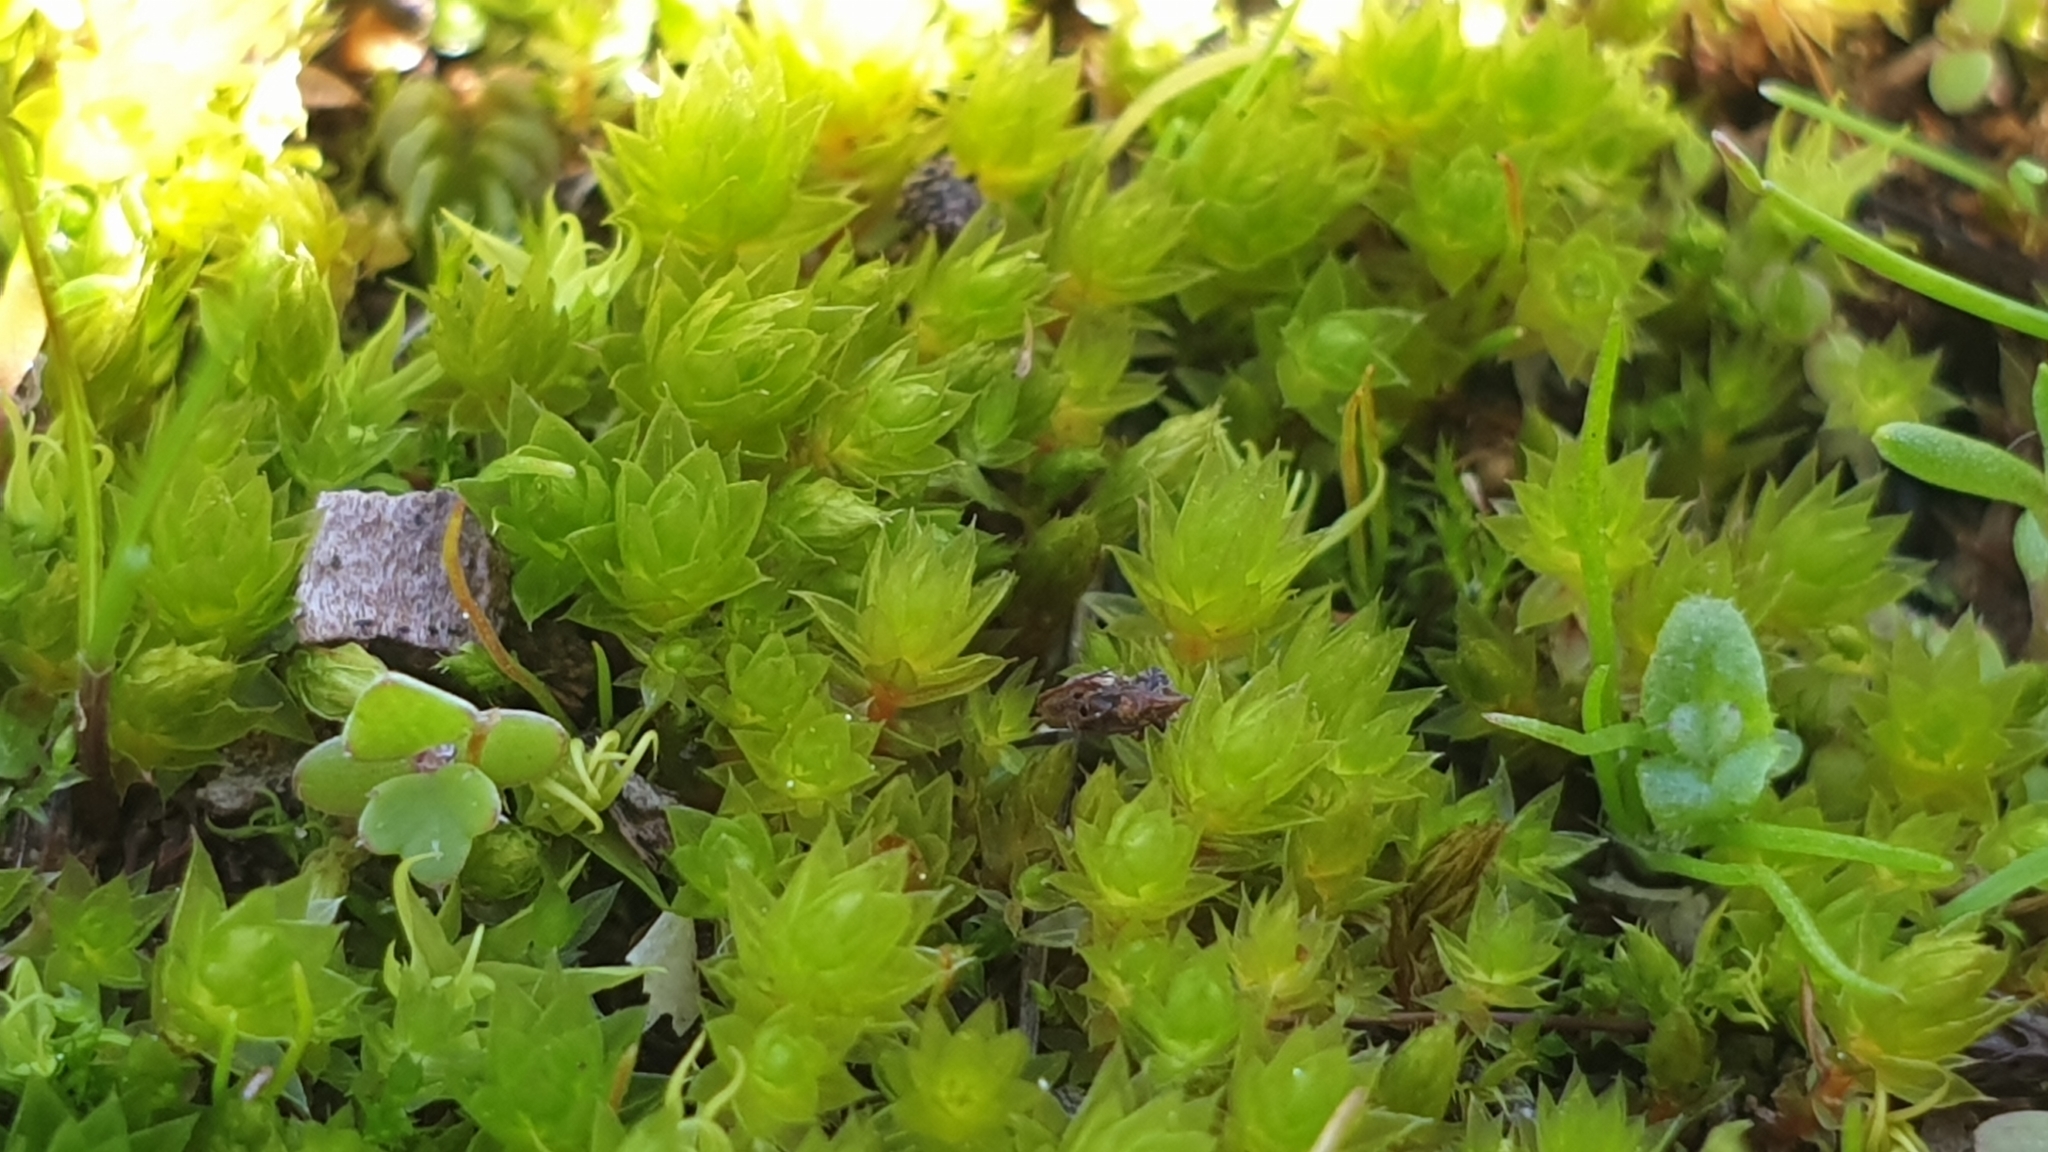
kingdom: Plantae
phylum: Bryophyta
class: Bryopsida
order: Bryales
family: Bryaceae
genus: Gemmabryum
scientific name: Gemmabryum caespiticium
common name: Handbell moss
